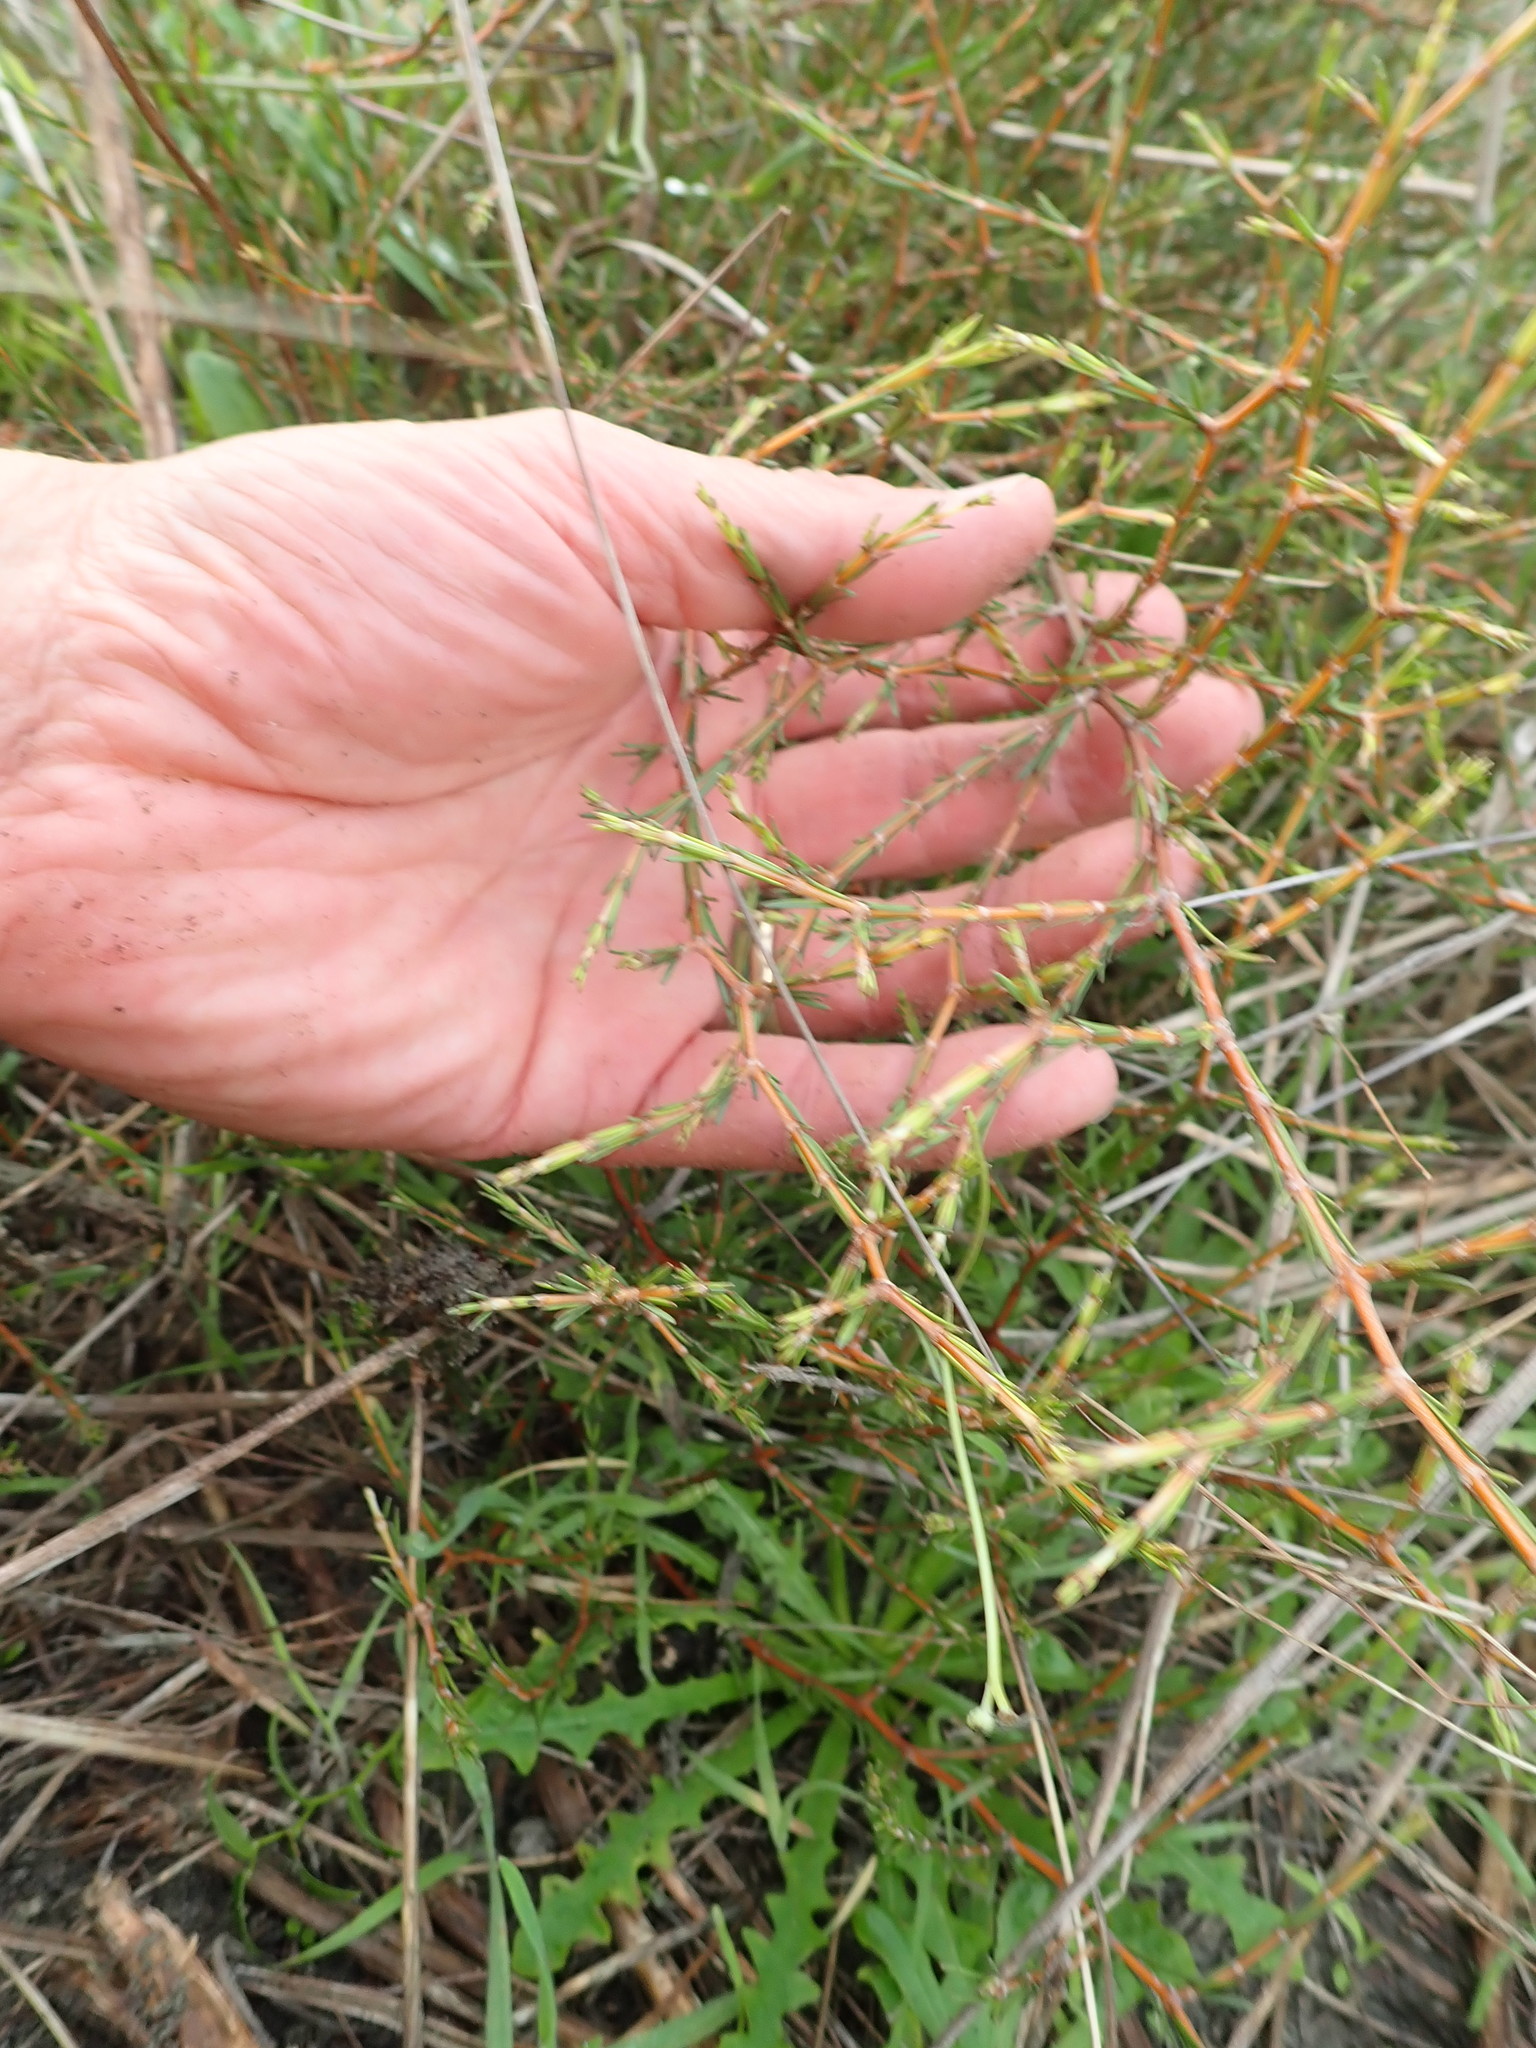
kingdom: Plantae
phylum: Tracheophyta
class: Magnoliopsida
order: Gentianales
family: Rubiaceae
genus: Coprosma
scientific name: Coprosma acerosa
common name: Sand coprosma
